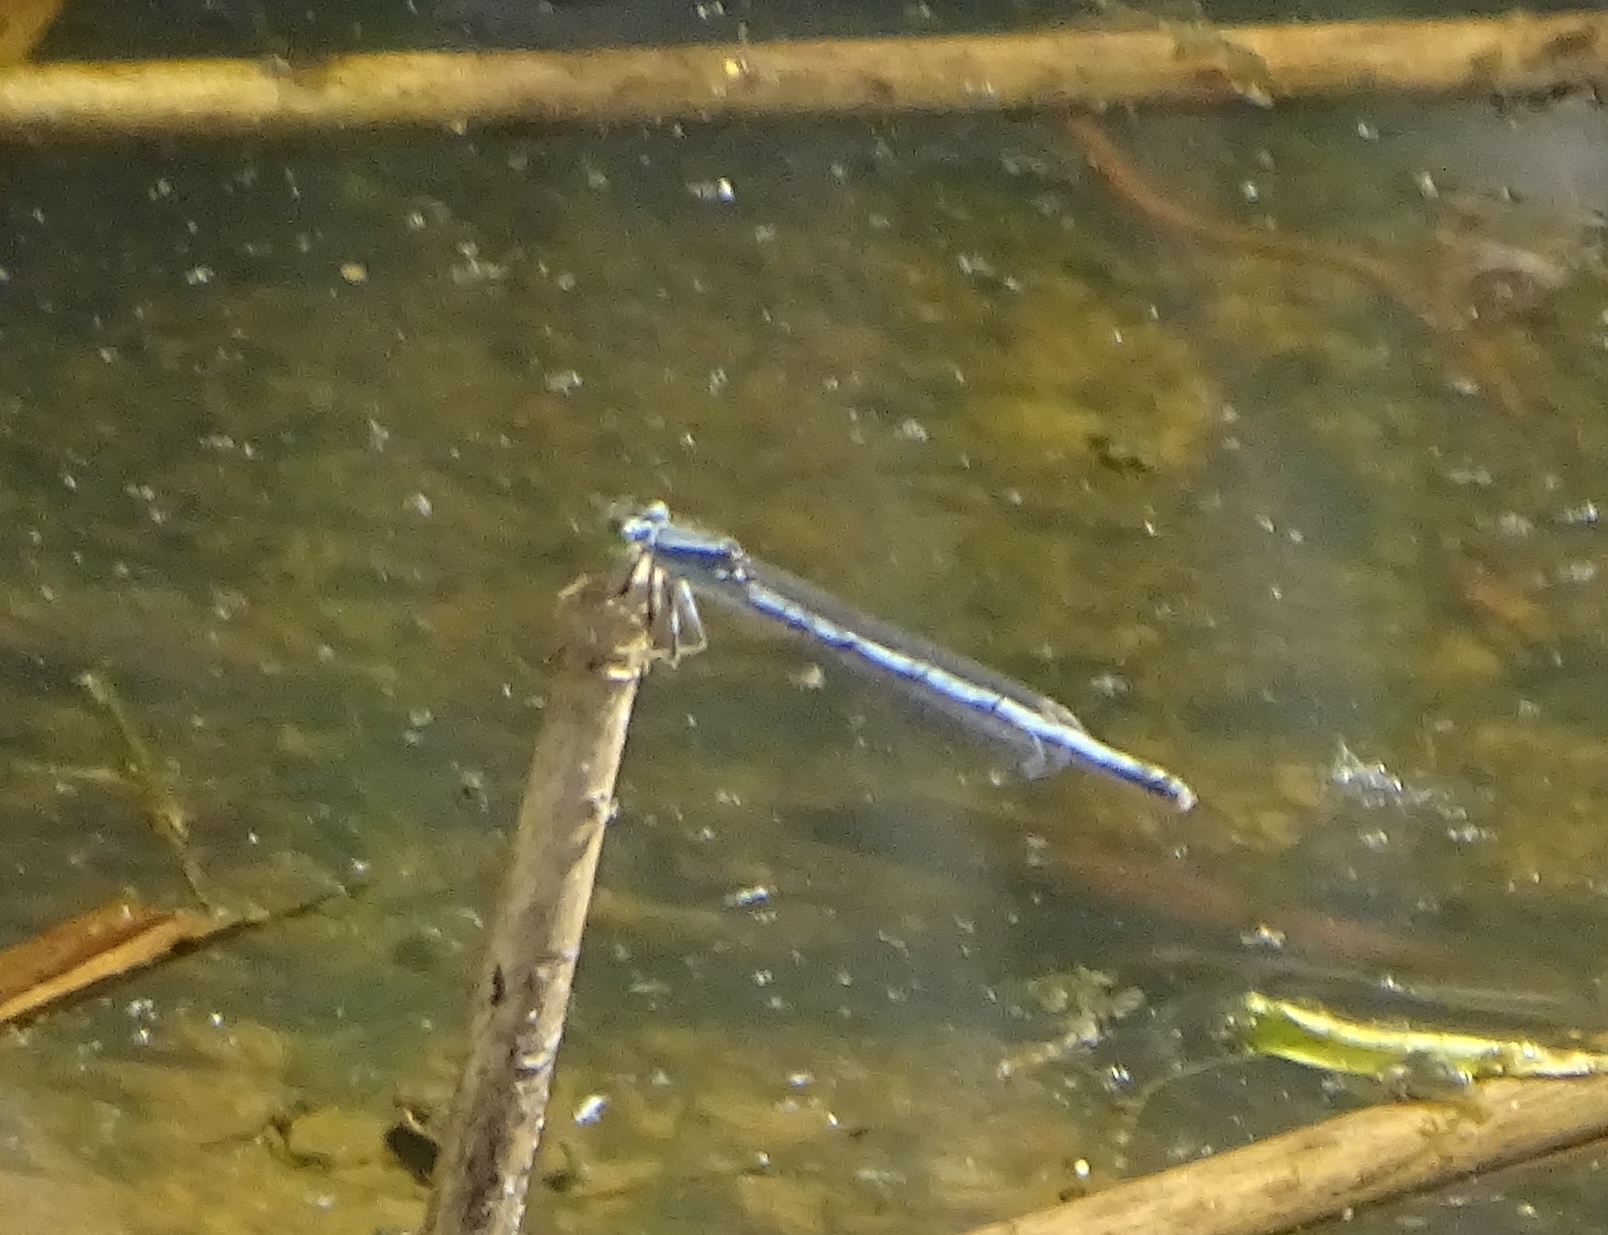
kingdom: Animalia
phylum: Arthropoda
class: Insecta
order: Odonata
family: Coenagrionidae
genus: Ischnura
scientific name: Ischnura verticalis
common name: Eastern forktail
